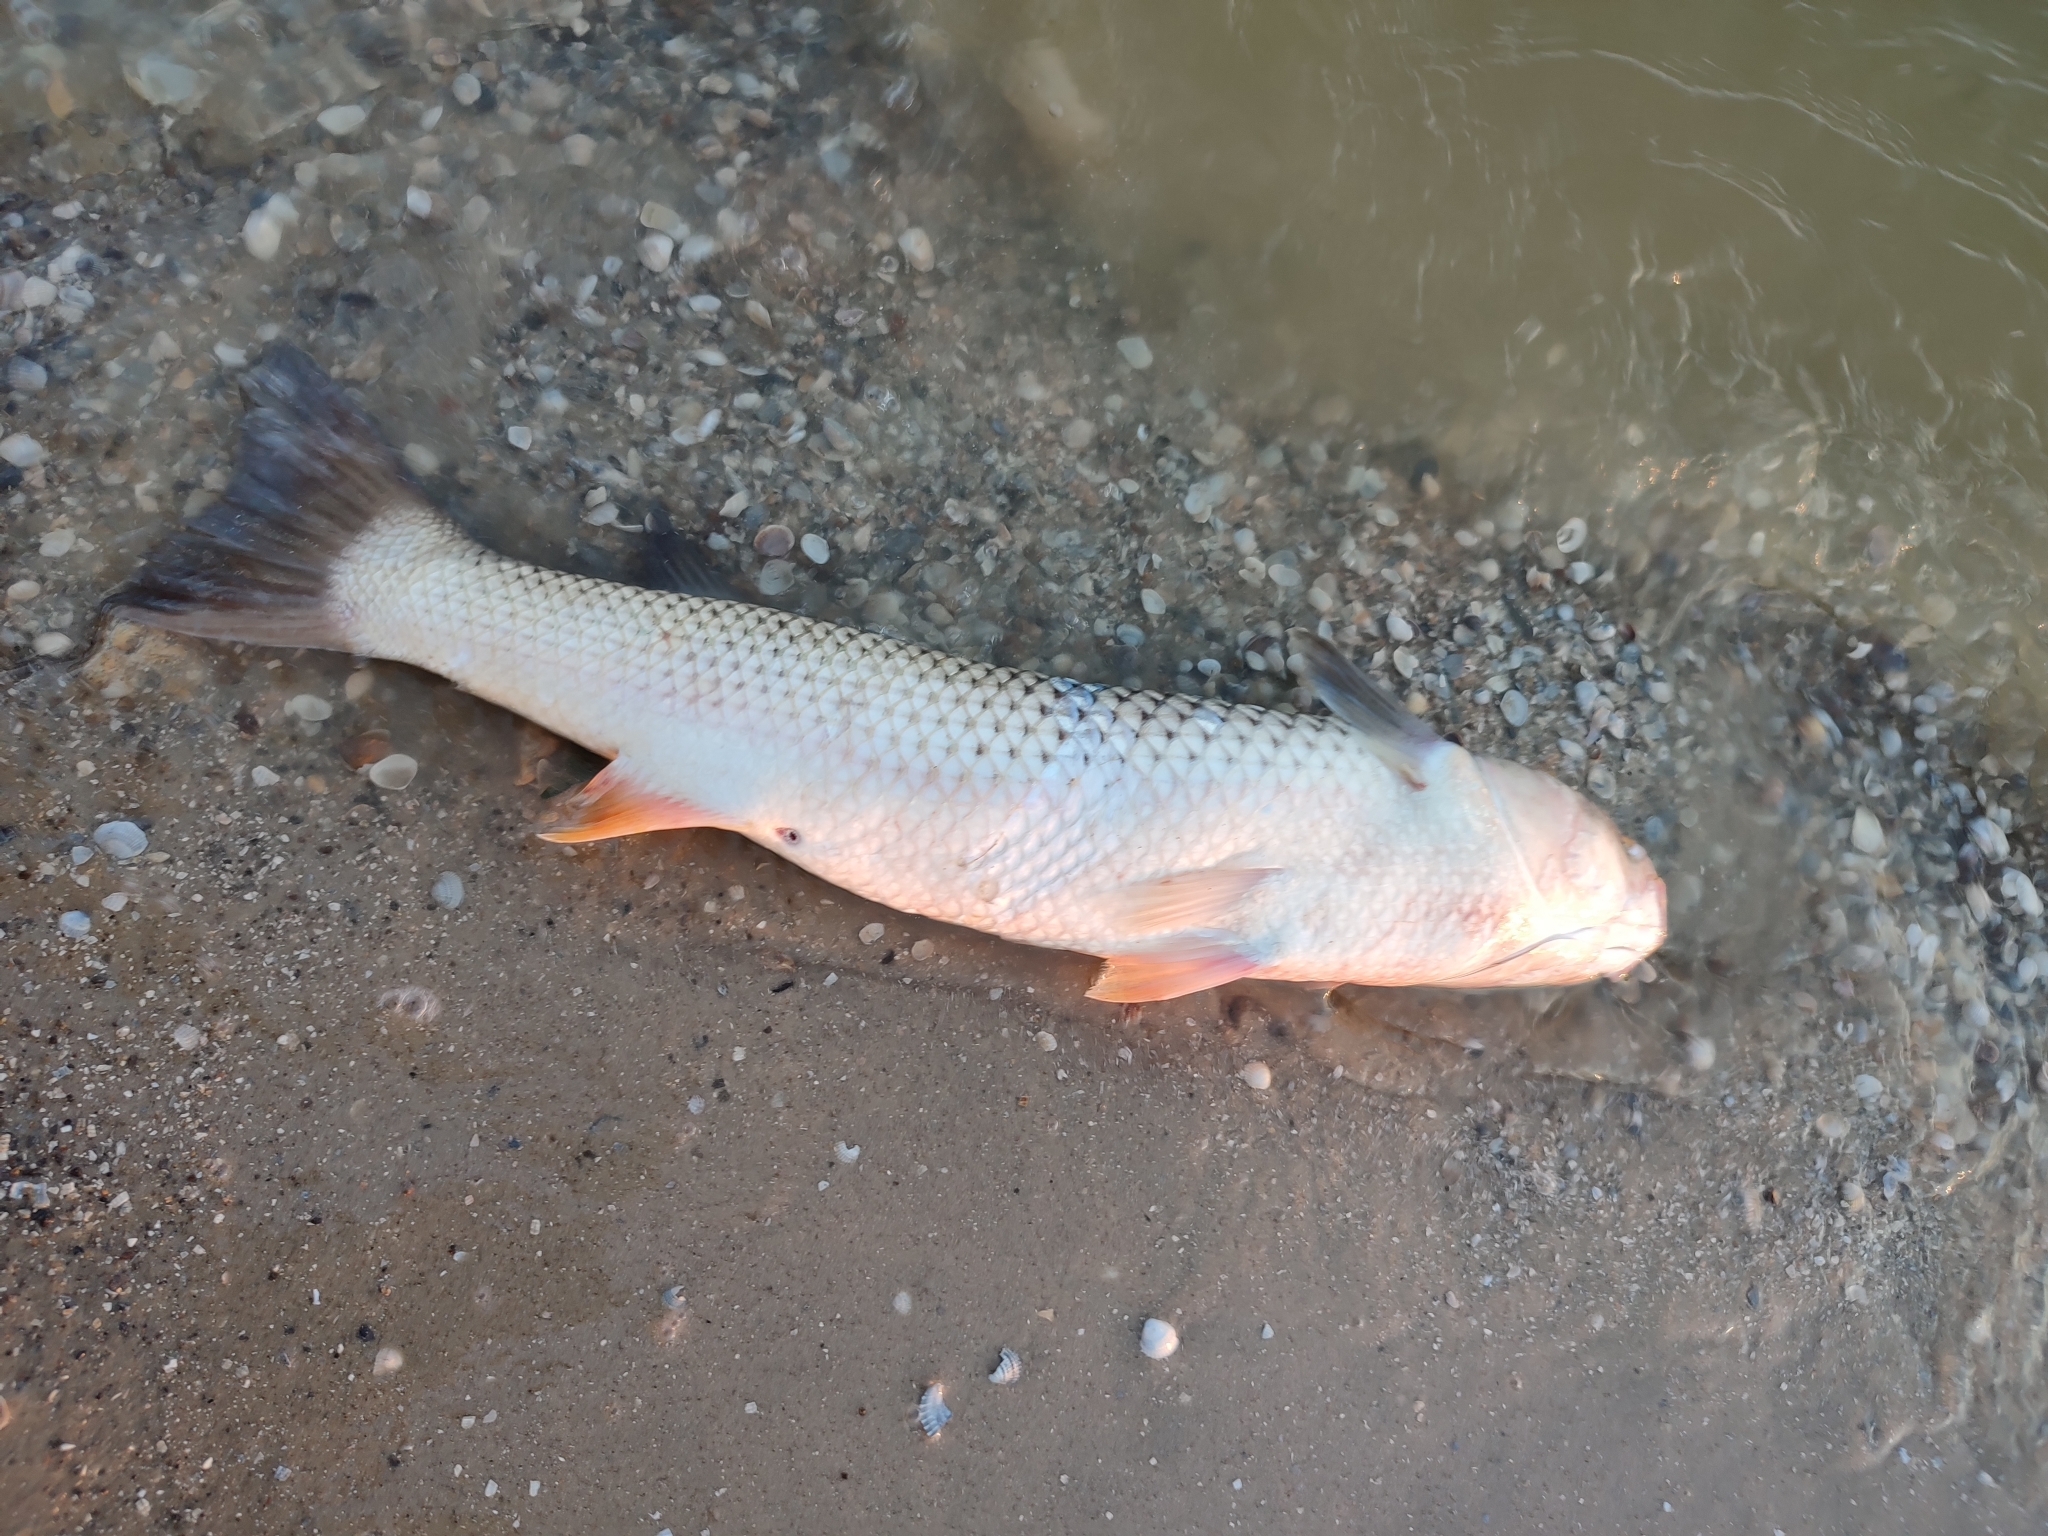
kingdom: Animalia
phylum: Chordata
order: Mugiliformes
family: Mugilidae
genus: Planiliza
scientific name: Planiliza haematocheila
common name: So-iuy mullet
